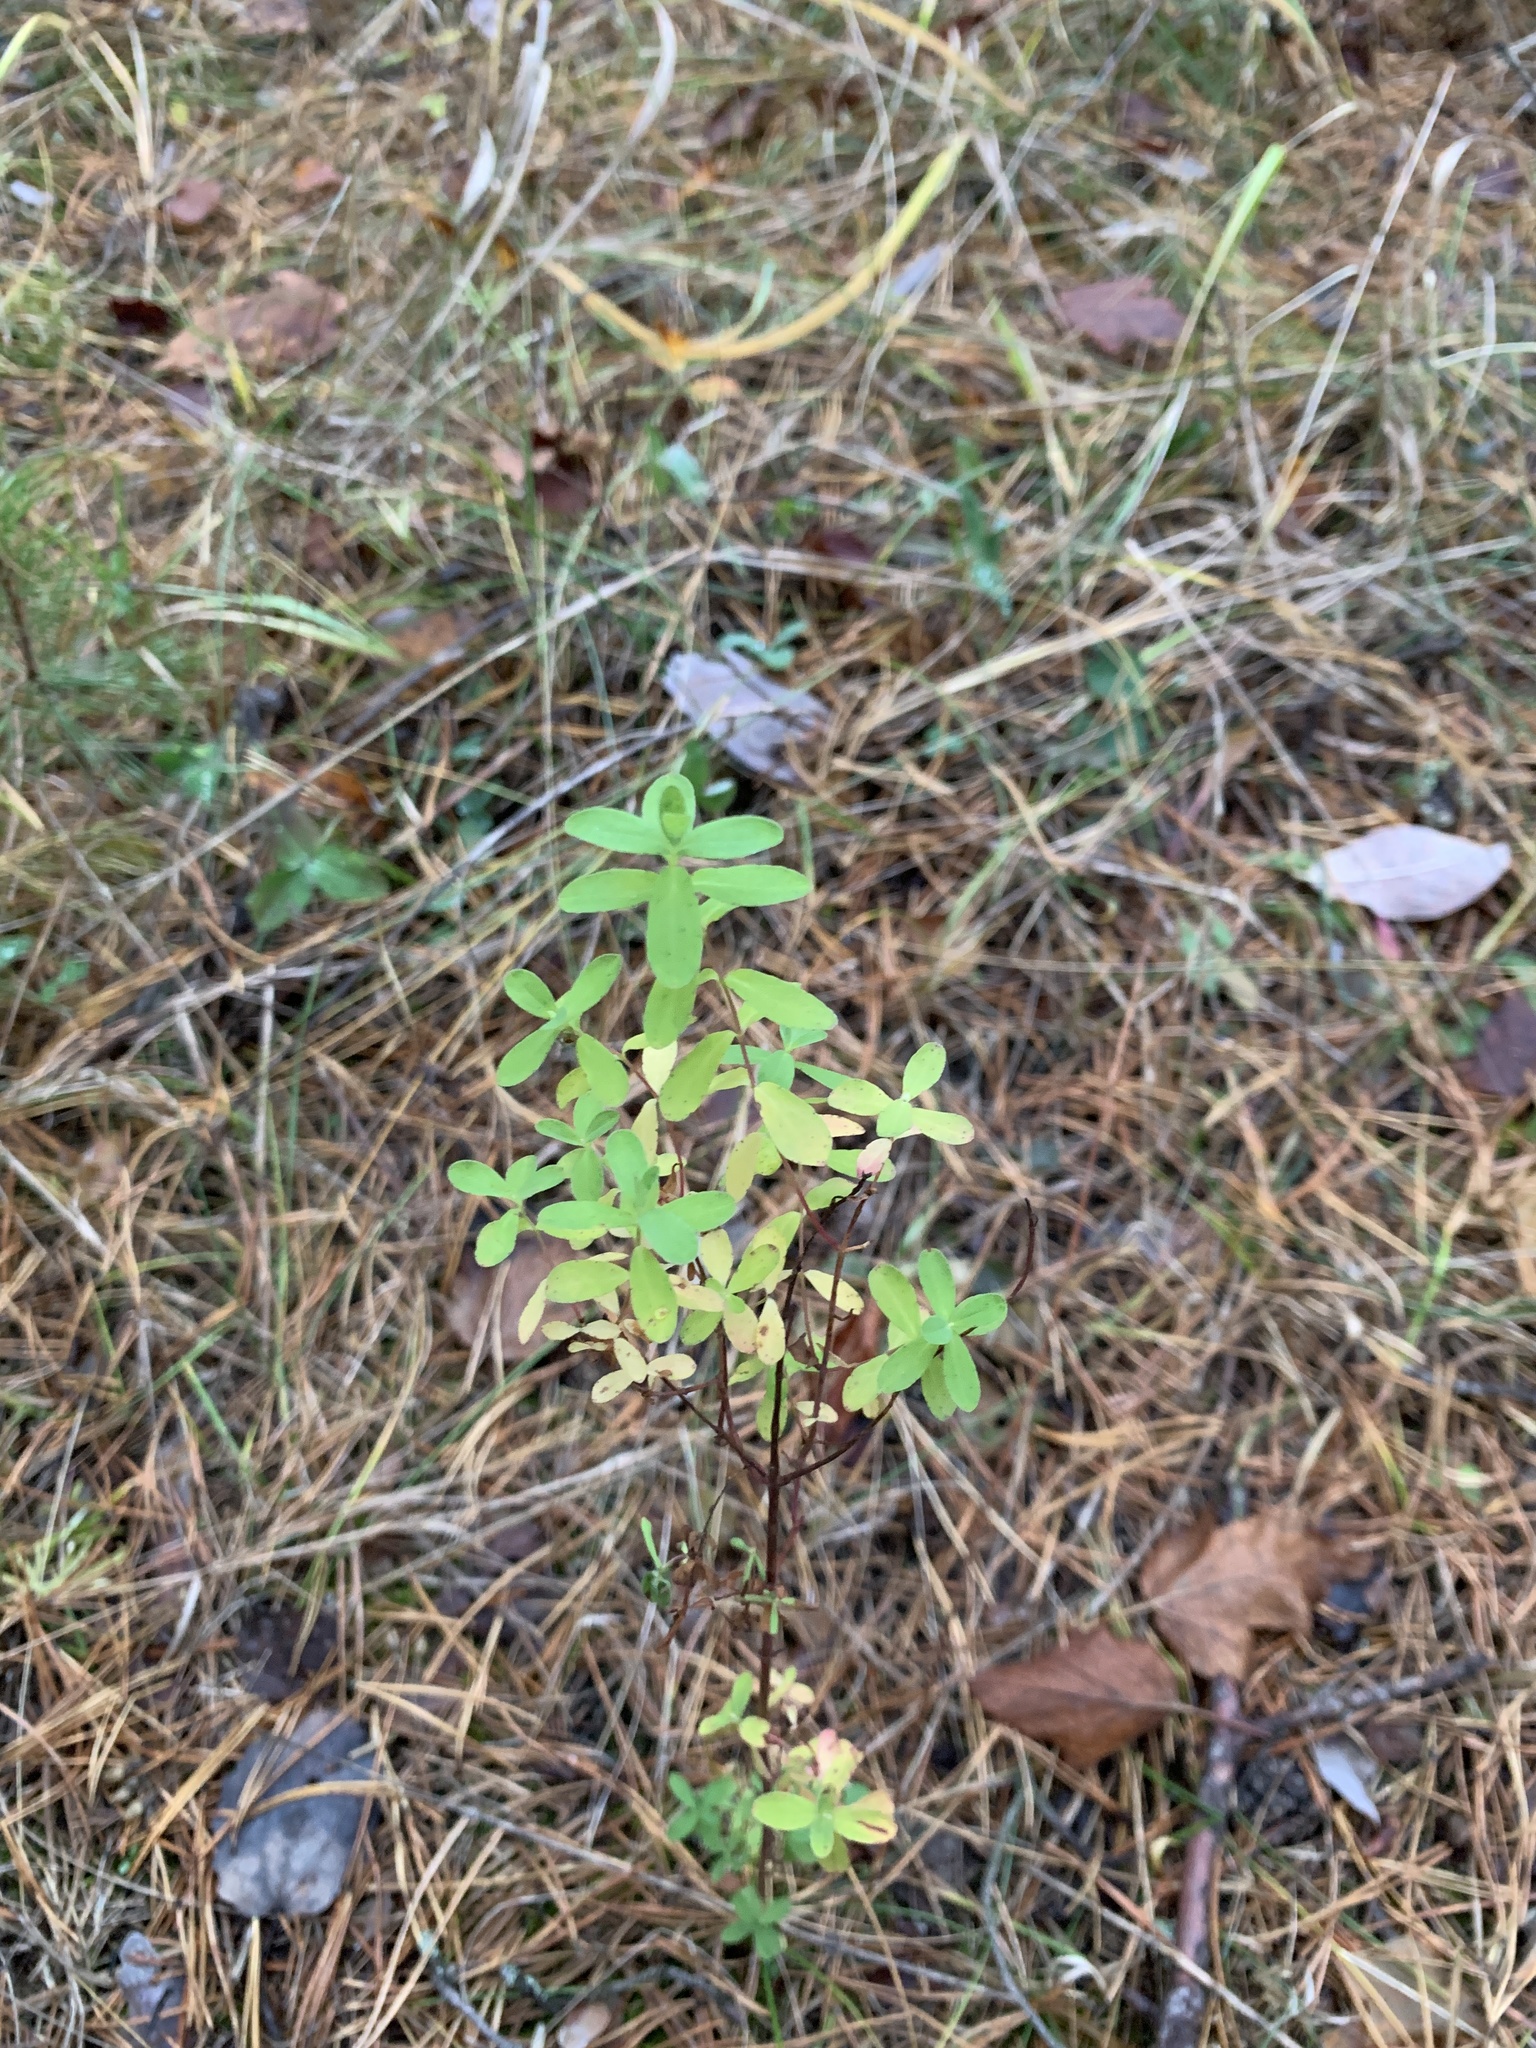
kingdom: Plantae
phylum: Tracheophyta
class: Magnoliopsida
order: Malpighiales
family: Hypericaceae
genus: Hypericum
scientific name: Hypericum perforatum
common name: Common st. johnswort
